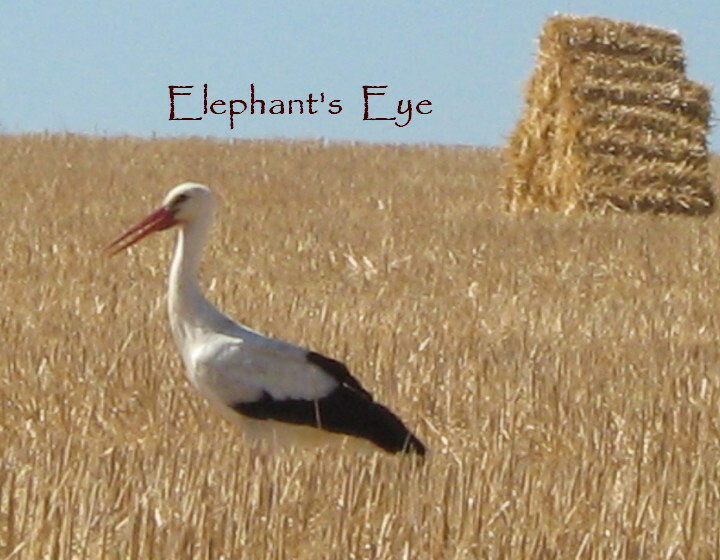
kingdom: Animalia
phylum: Chordata
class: Aves
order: Ciconiiformes
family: Ciconiidae
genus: Ciconia
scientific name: Ciconia ciconia
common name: White stork
